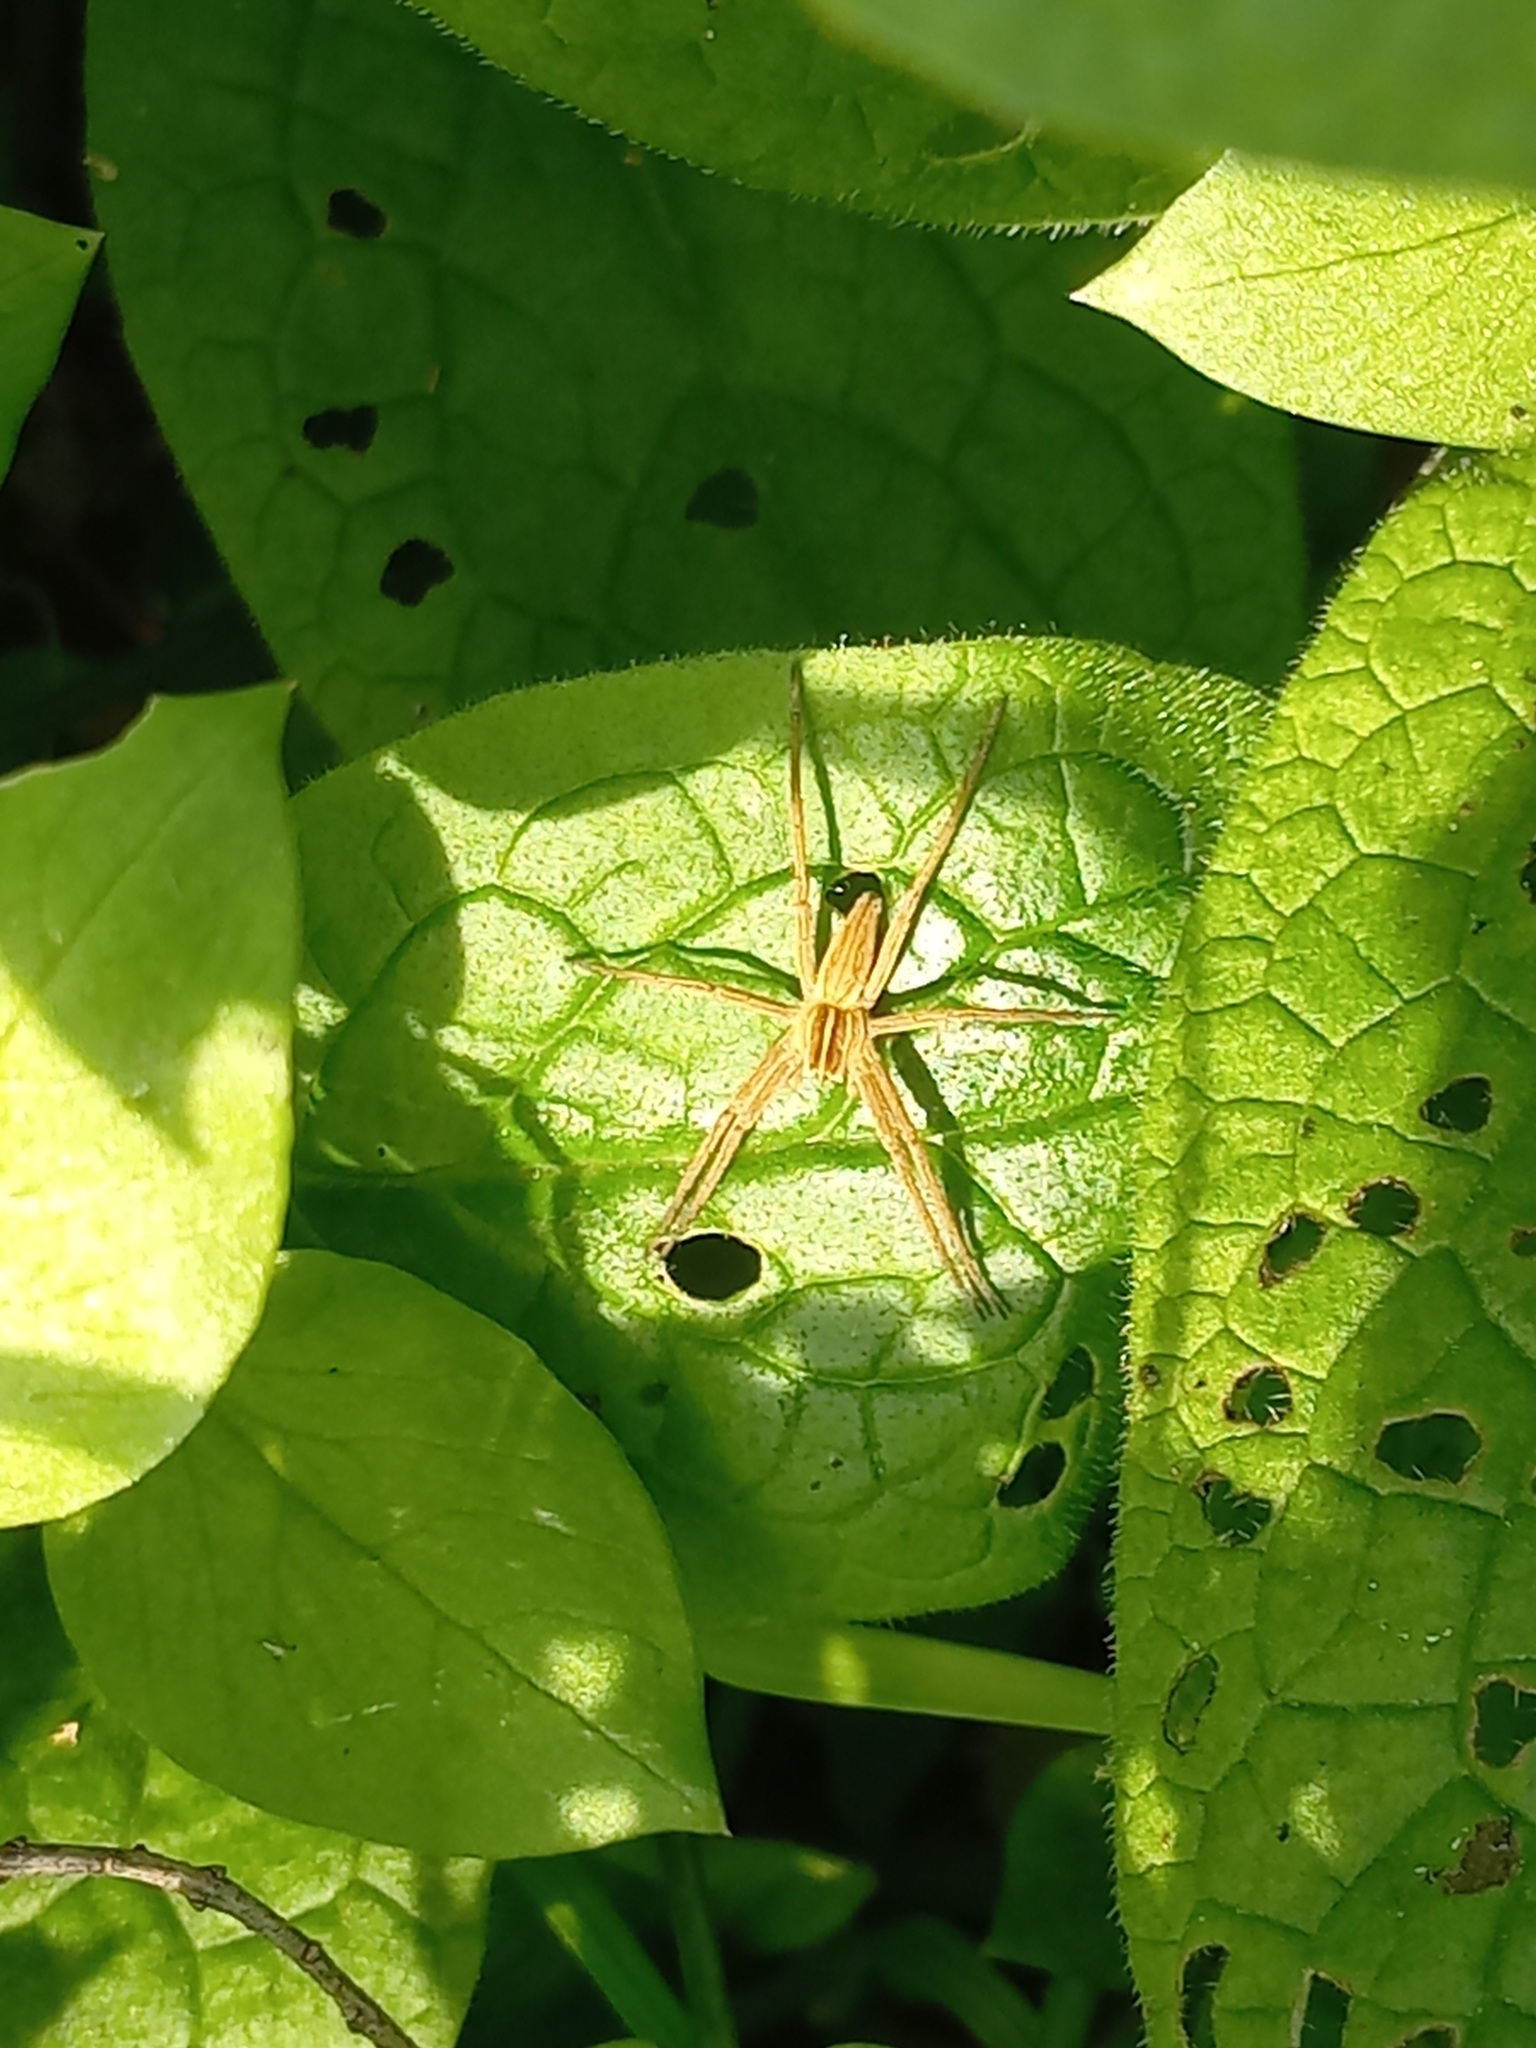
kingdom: Animalia
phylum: Arthropoda
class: Arachnida
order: Araneae
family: Pisauridae
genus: Pisaura
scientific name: Pisaura mirabilis
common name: Tent spider
